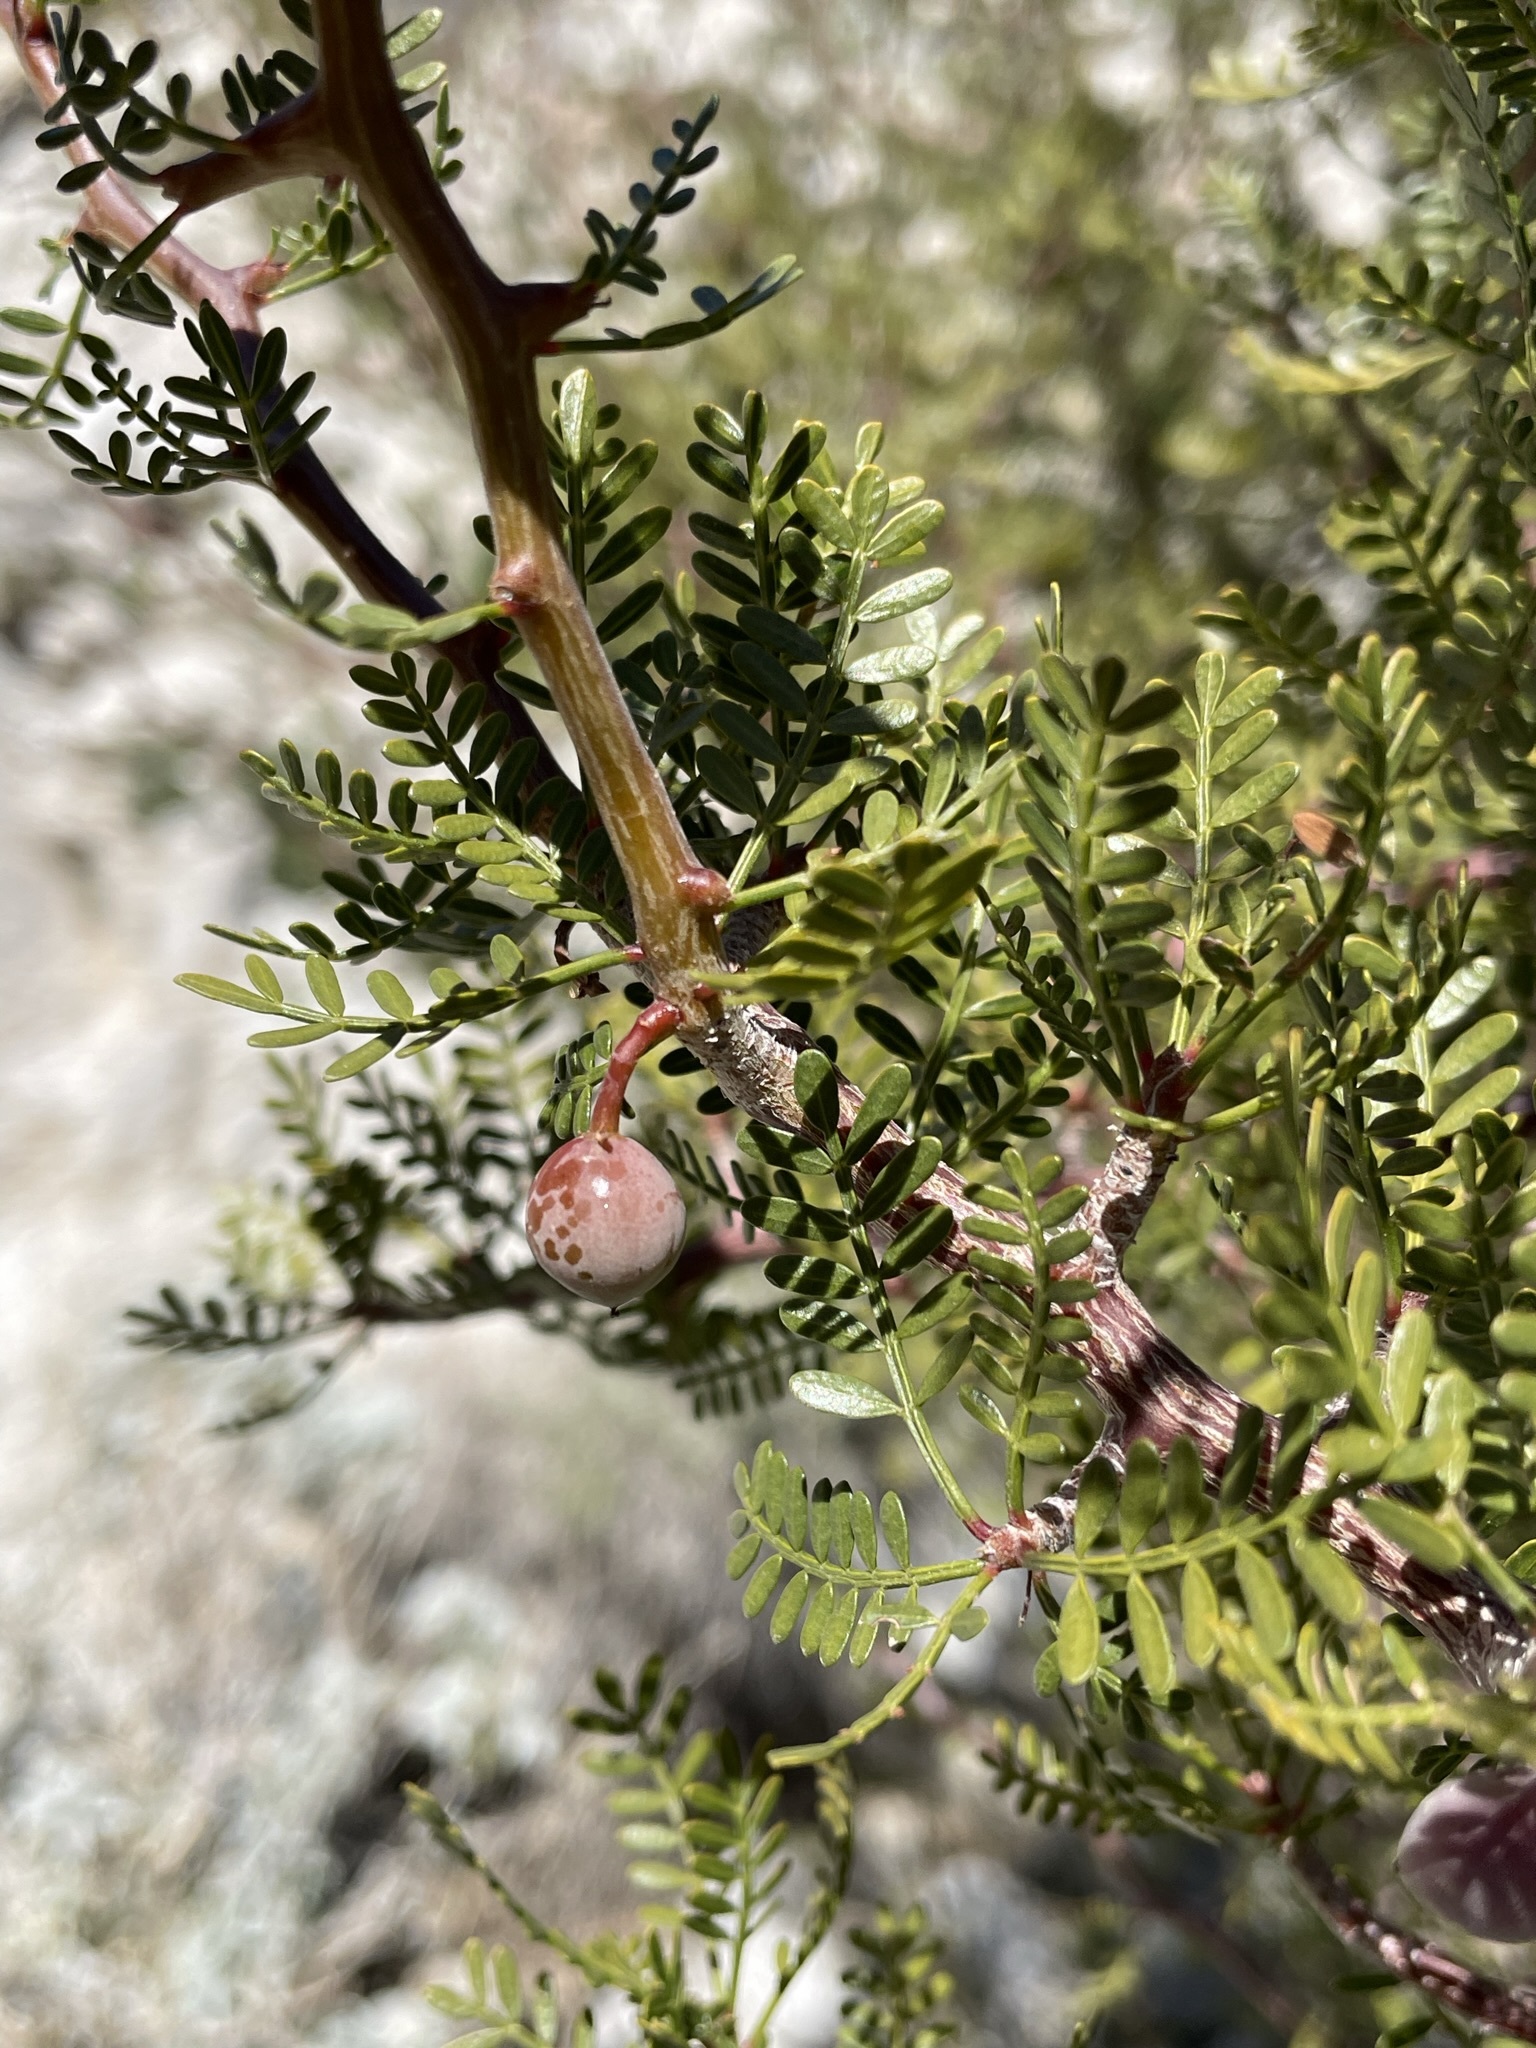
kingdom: Plantae
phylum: Tracheophyta
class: Magnoliopsida
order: Sapindales
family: Burseraceae
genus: Bursera
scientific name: Bursera microphylla
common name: Elephant tree
